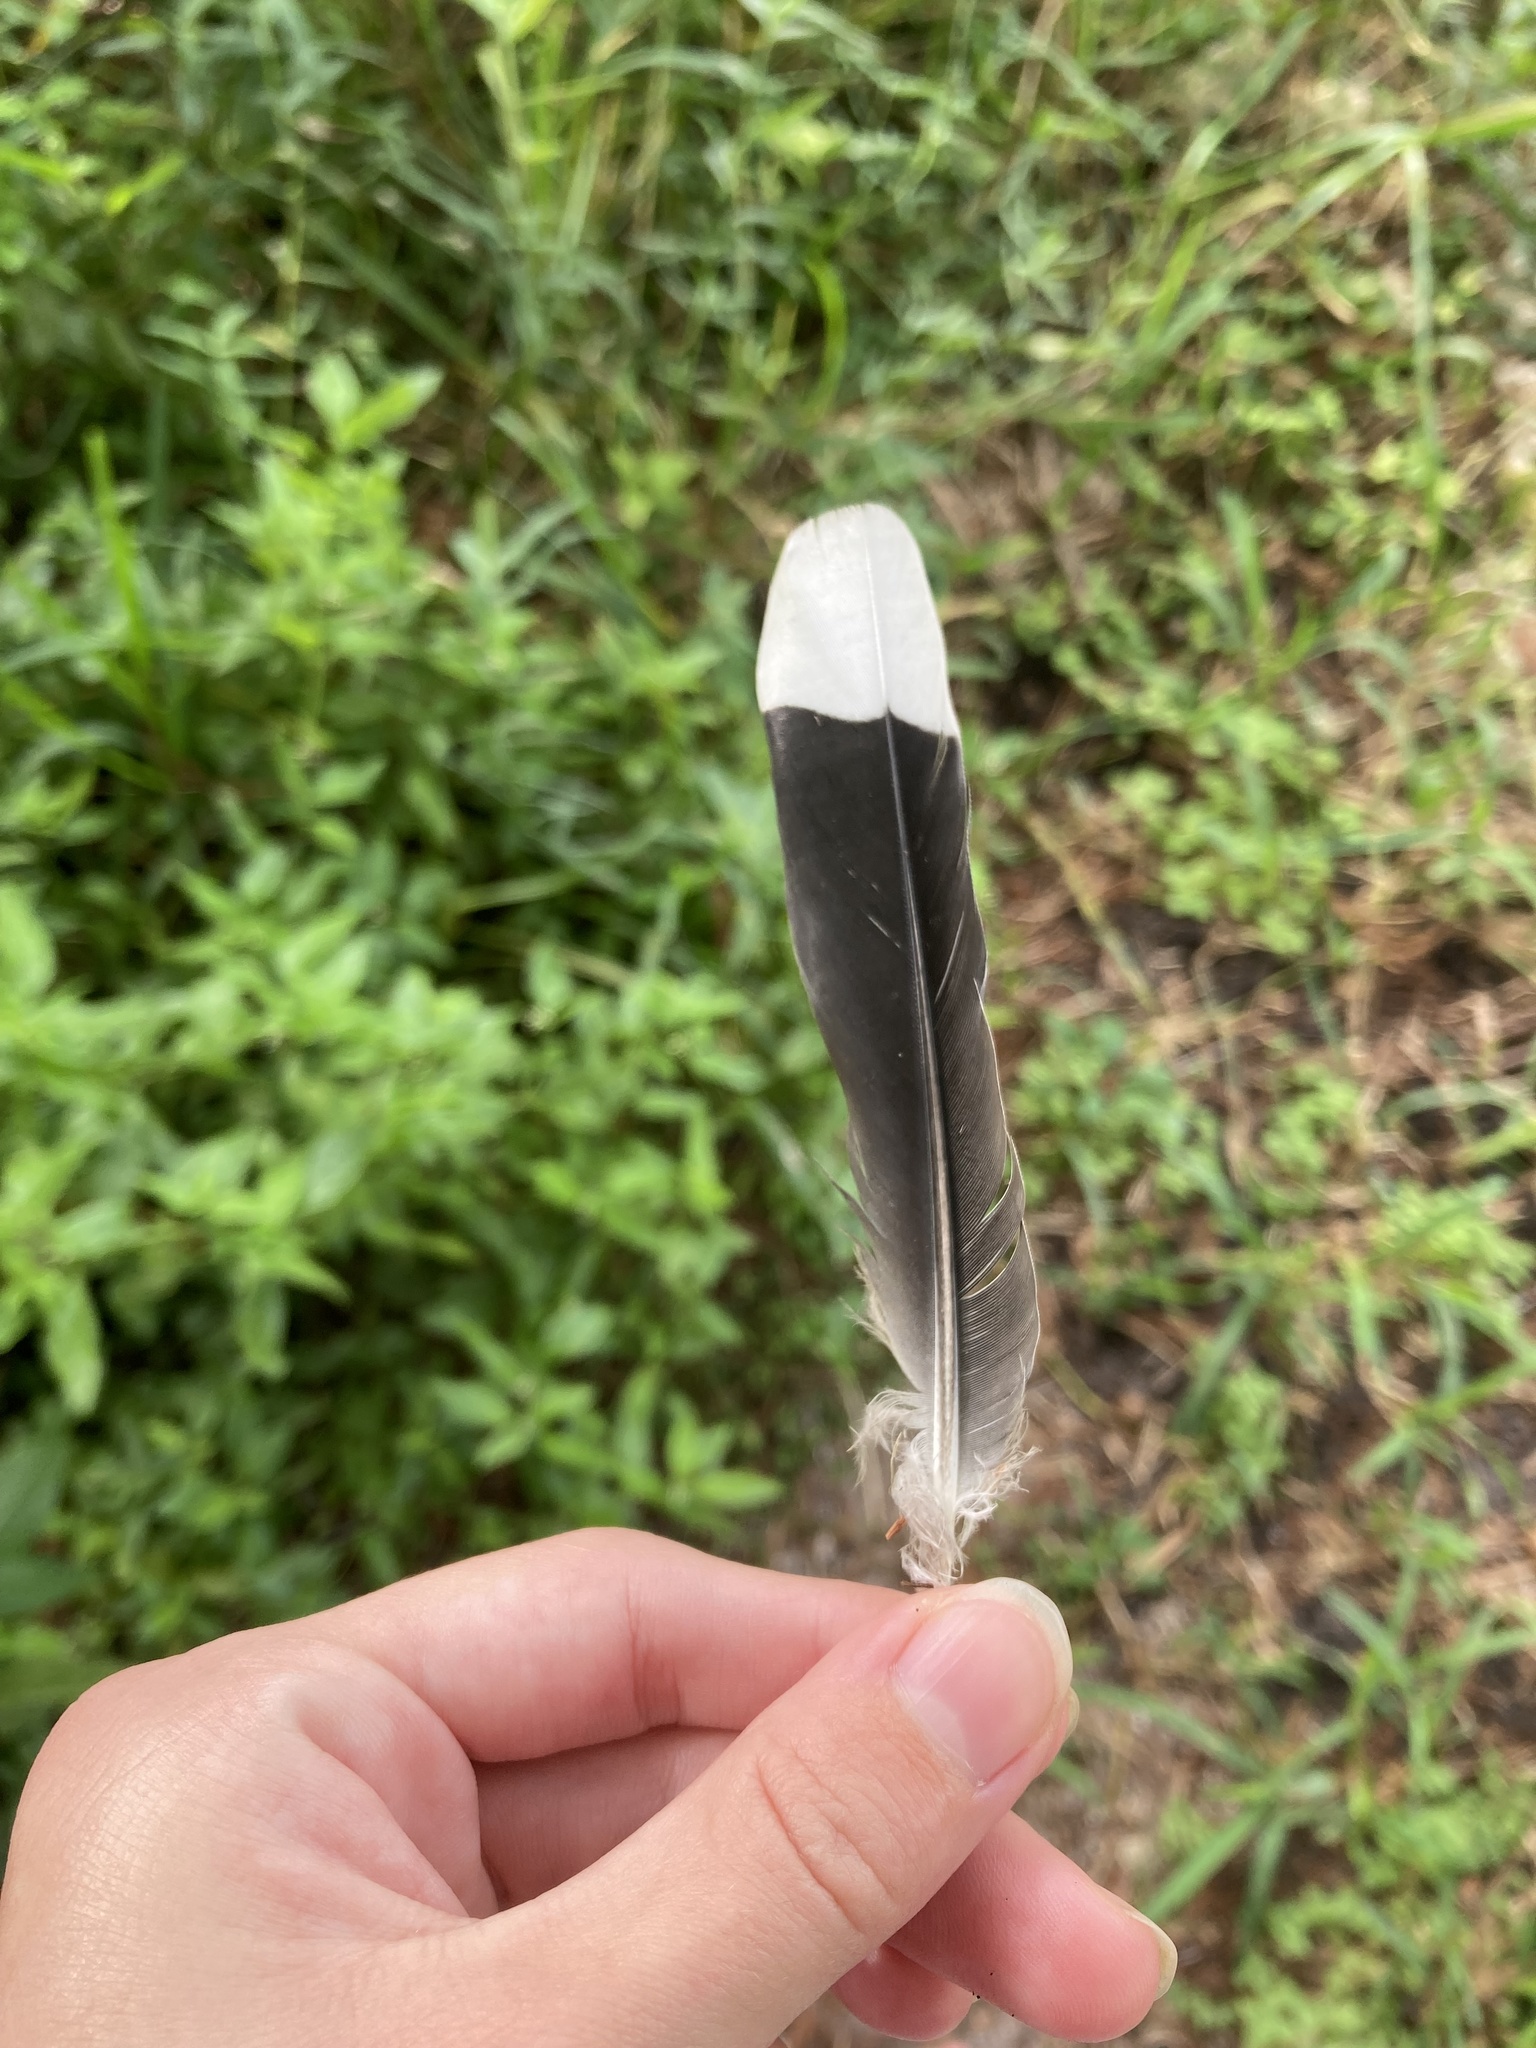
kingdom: Animalia
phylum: Chordata
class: Aves
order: Columbiformes
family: Columbidae
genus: Zenaida
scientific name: Zenaida asiatica
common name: White-winged dove
